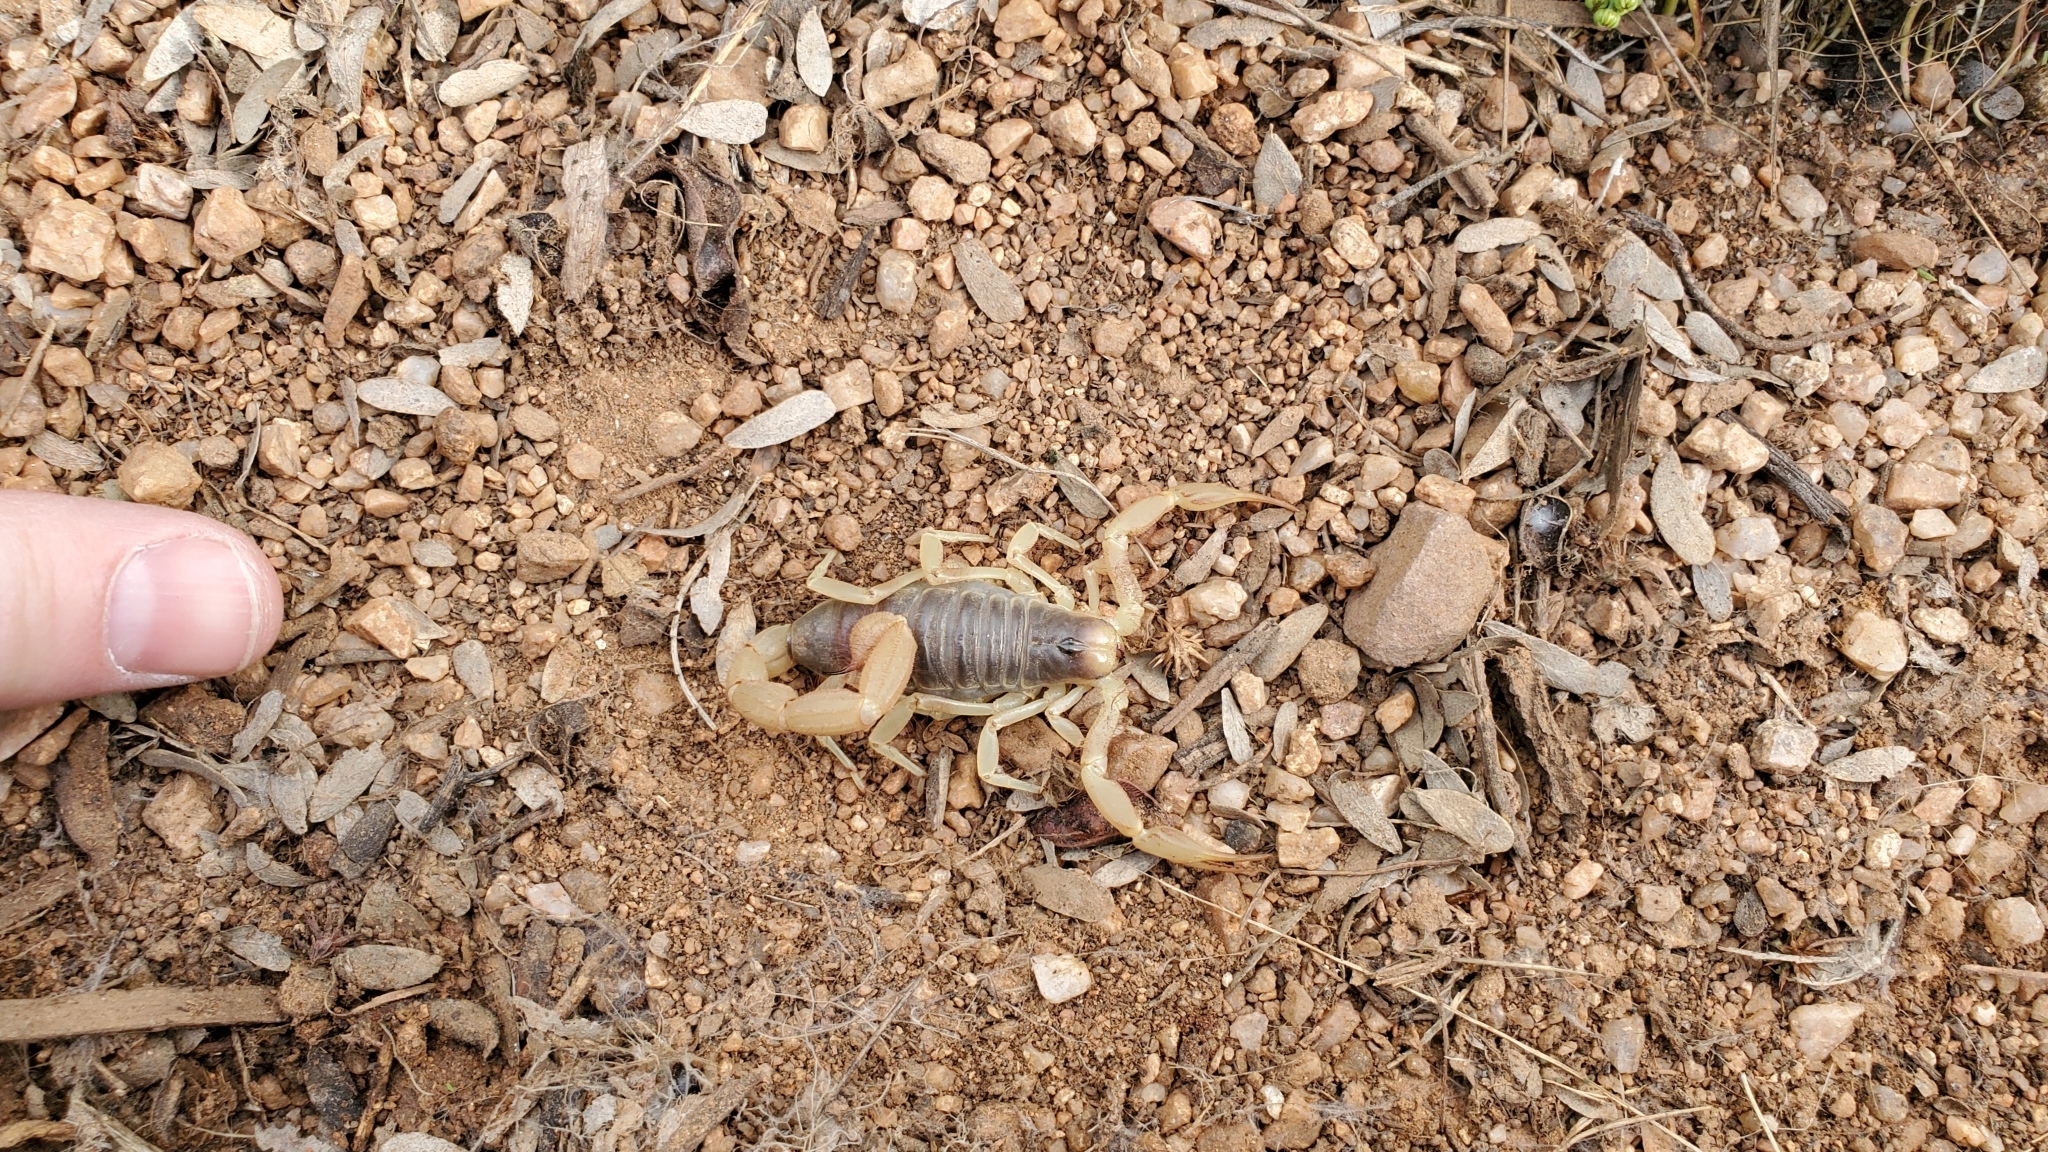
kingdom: Animalia
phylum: Arthropoda
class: Arachnida
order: Scorpiones
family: Hadruridae
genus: Hadrurus
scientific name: Hadrurus arizonensis
